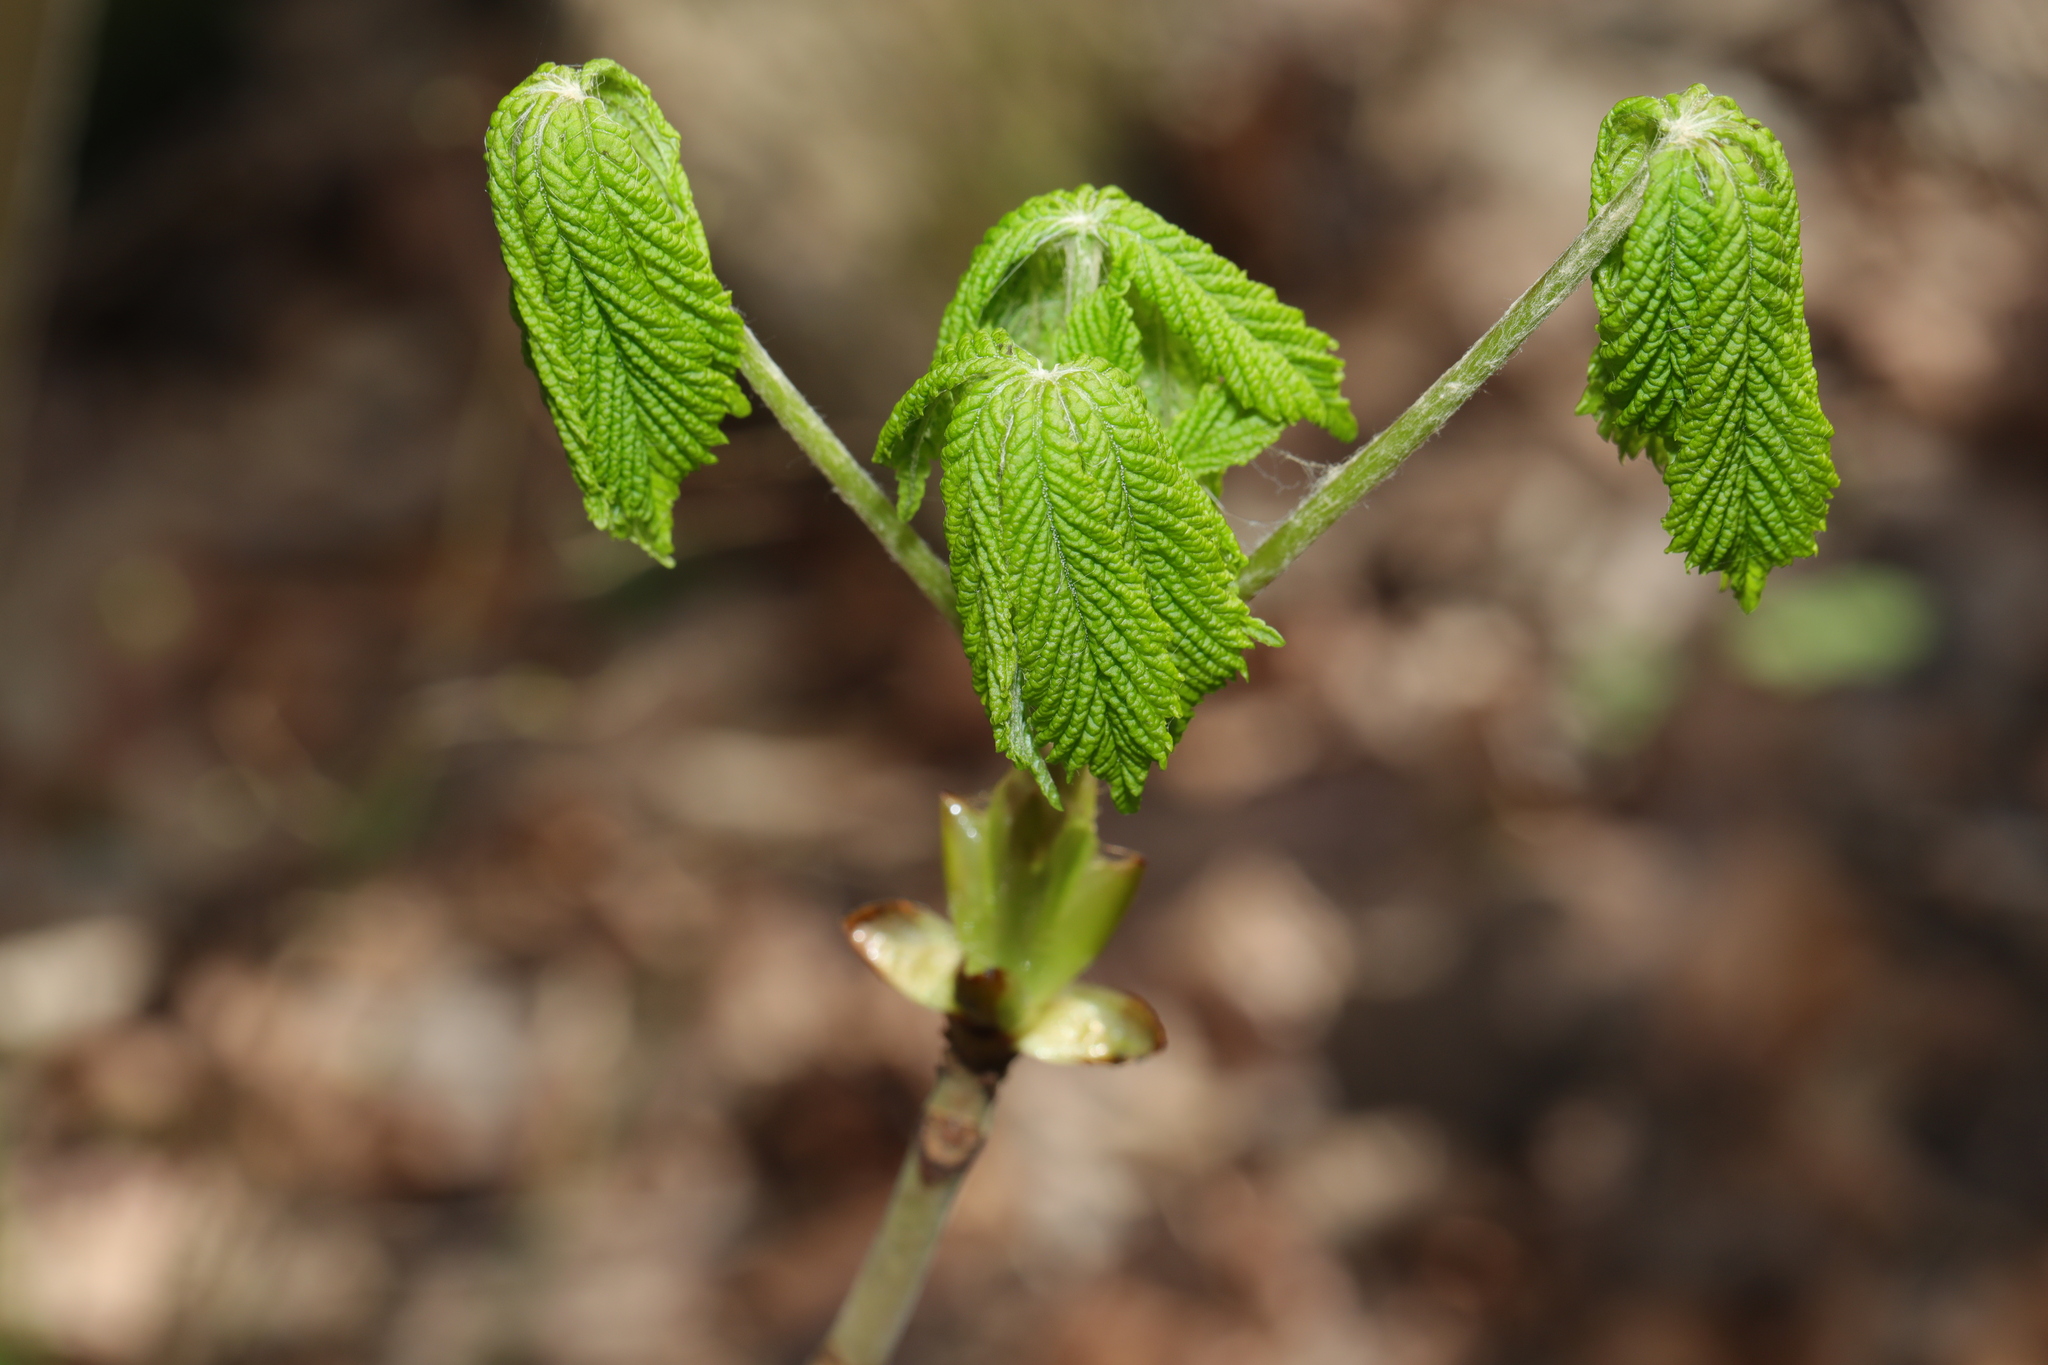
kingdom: Plantae
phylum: Tracheophyta
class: Magnoliopsida
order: Sapindales
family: Sapindaceae
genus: Aesculus
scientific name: Aesculus hippocastanum
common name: Horse-chestnut
